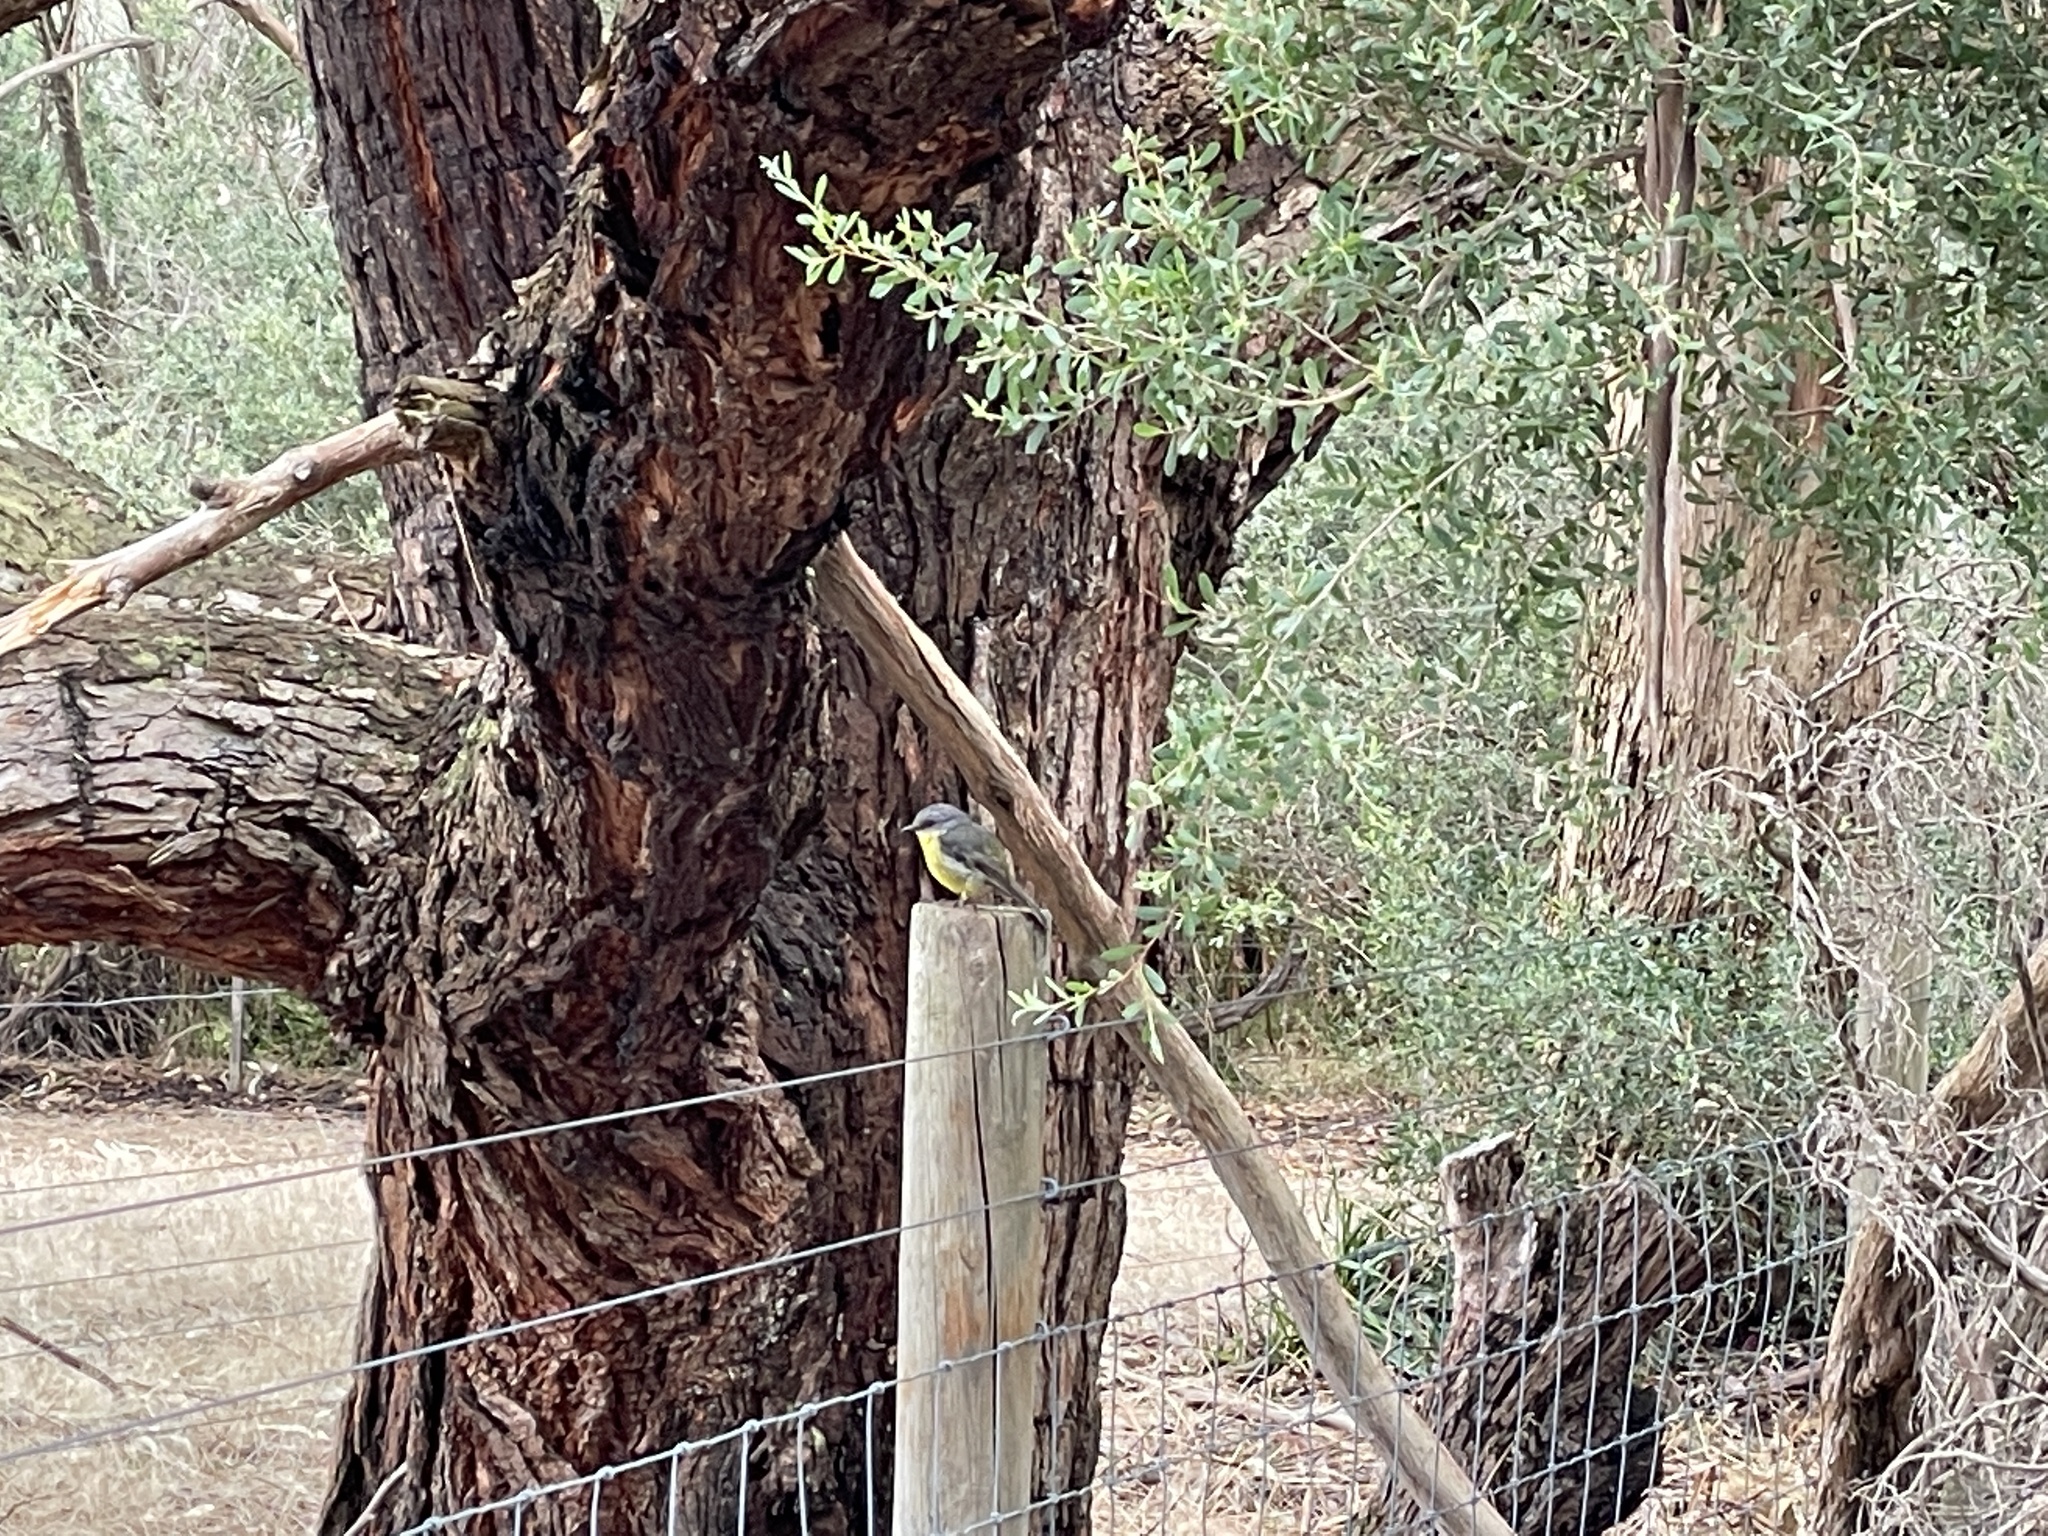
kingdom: Animalia
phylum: Chordata
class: Aves
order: Passeriformes
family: Petroicidae
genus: Eopsaltria
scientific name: Eopsaltria australis
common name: Eastern yellow robin
